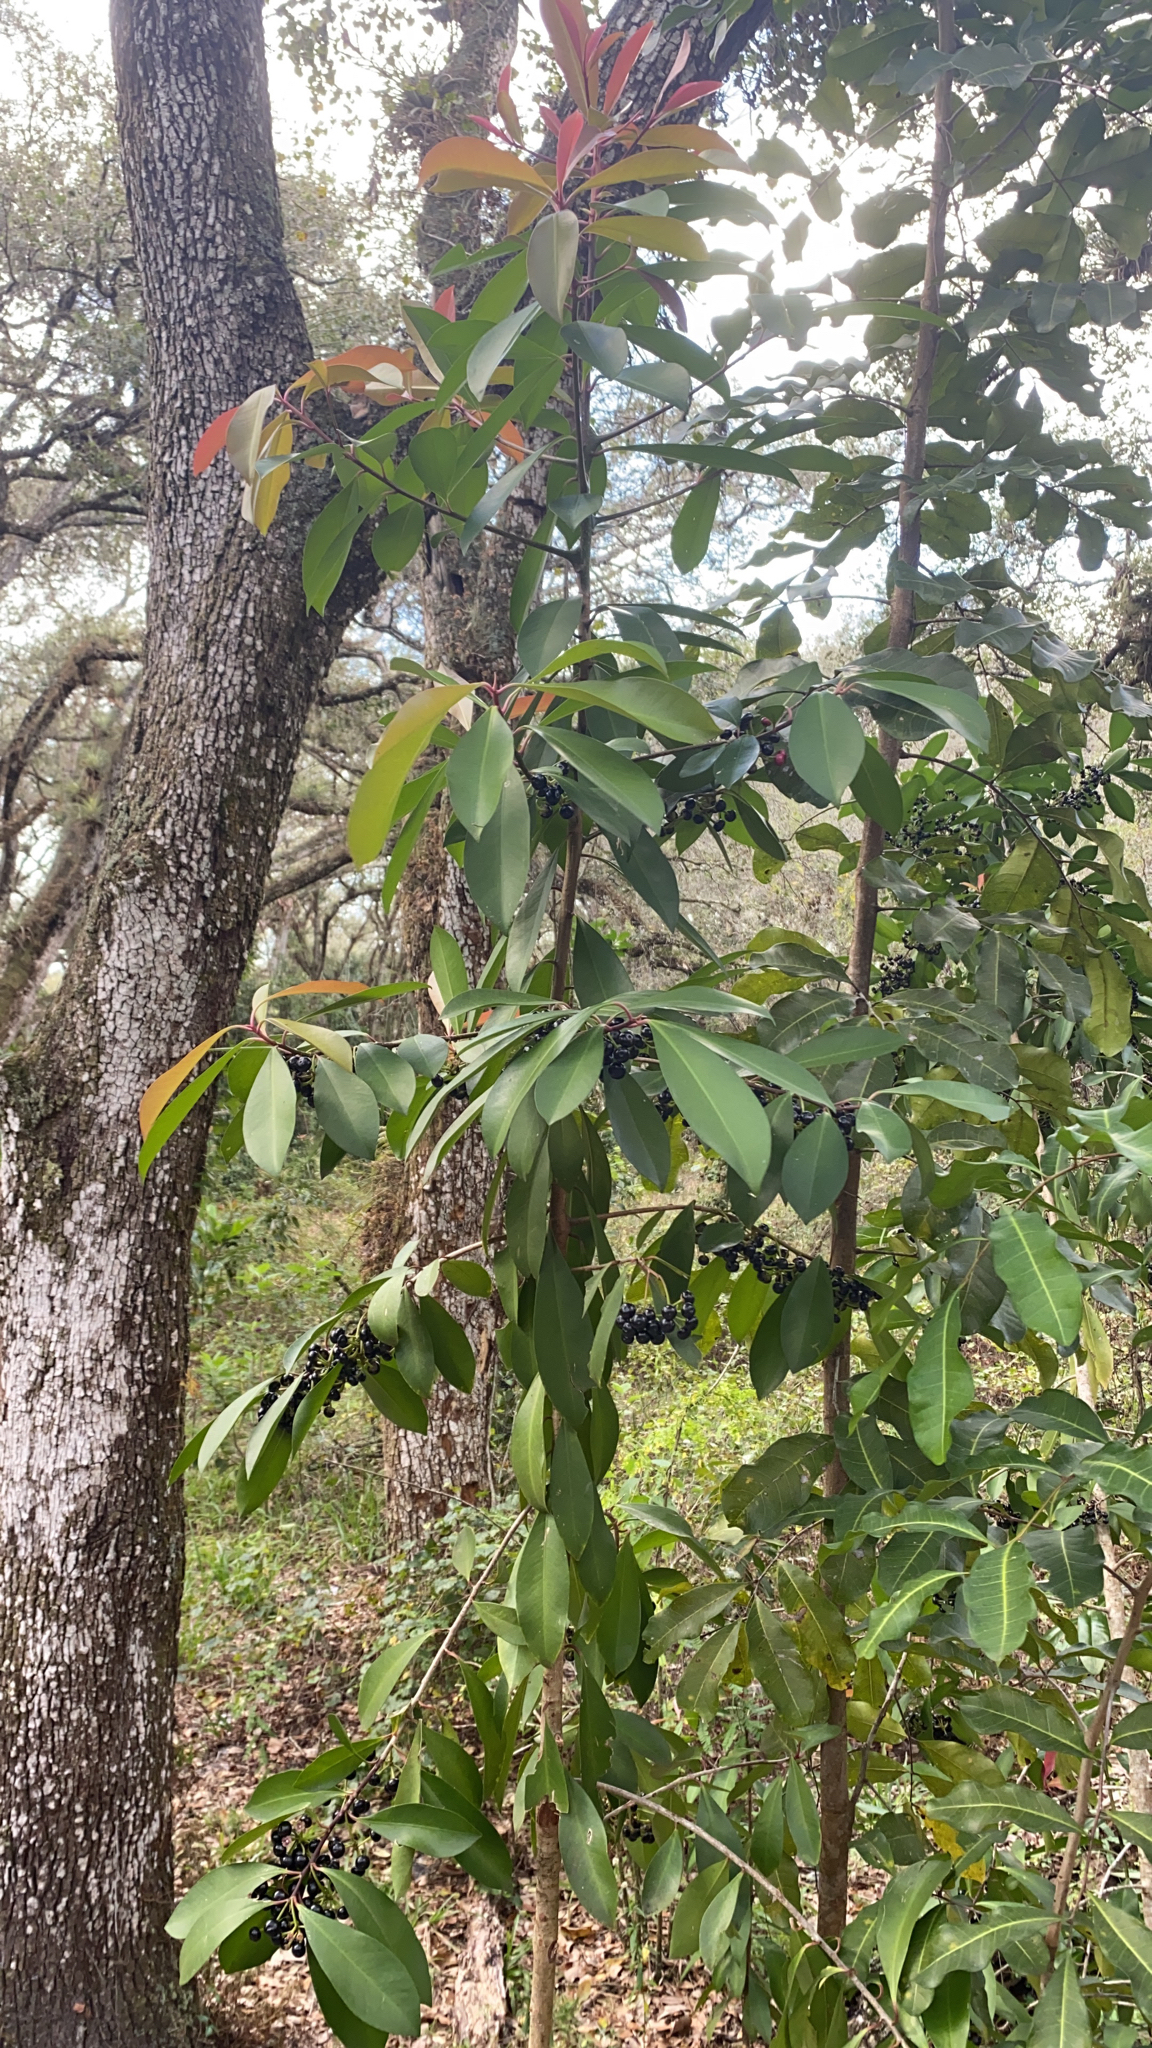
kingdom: Plantae
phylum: Tracheophyta
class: Magnoliopsida
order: Ericales
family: Primulaceae
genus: Ardisia
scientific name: Ardisia elliptica
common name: Shoebutton
